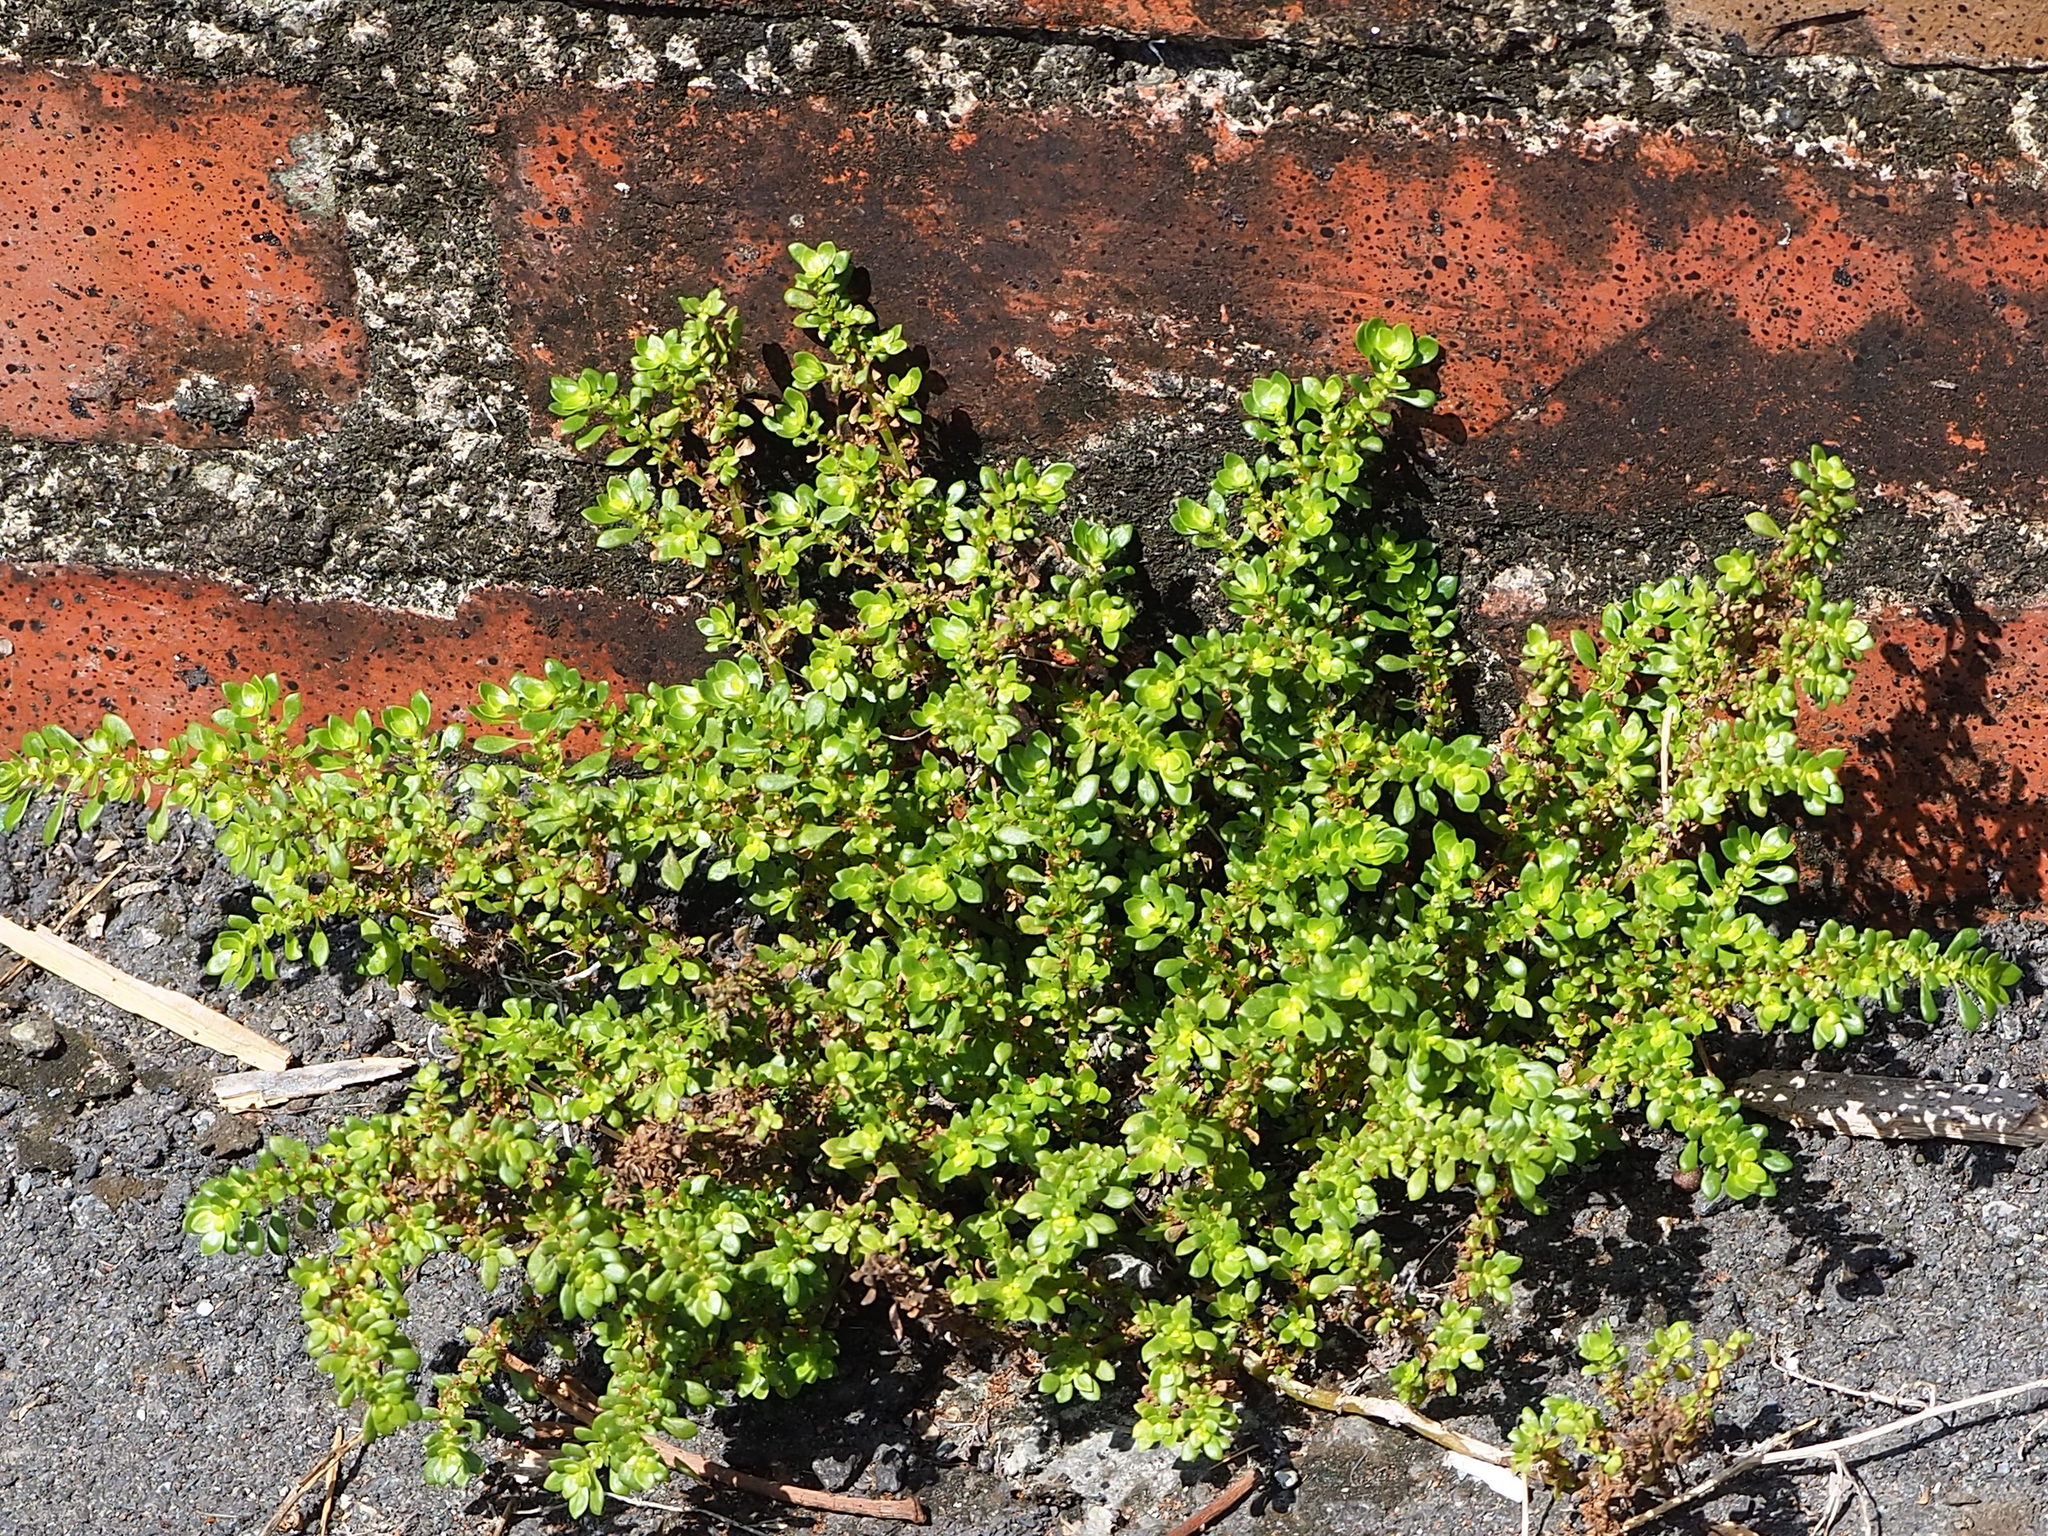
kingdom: Plantae
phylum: Tracheophyta
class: Magnoliopsida
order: Rosales
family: Urticaceae
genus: Pilea
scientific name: Pilea microphylla
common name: Artillery-plant
